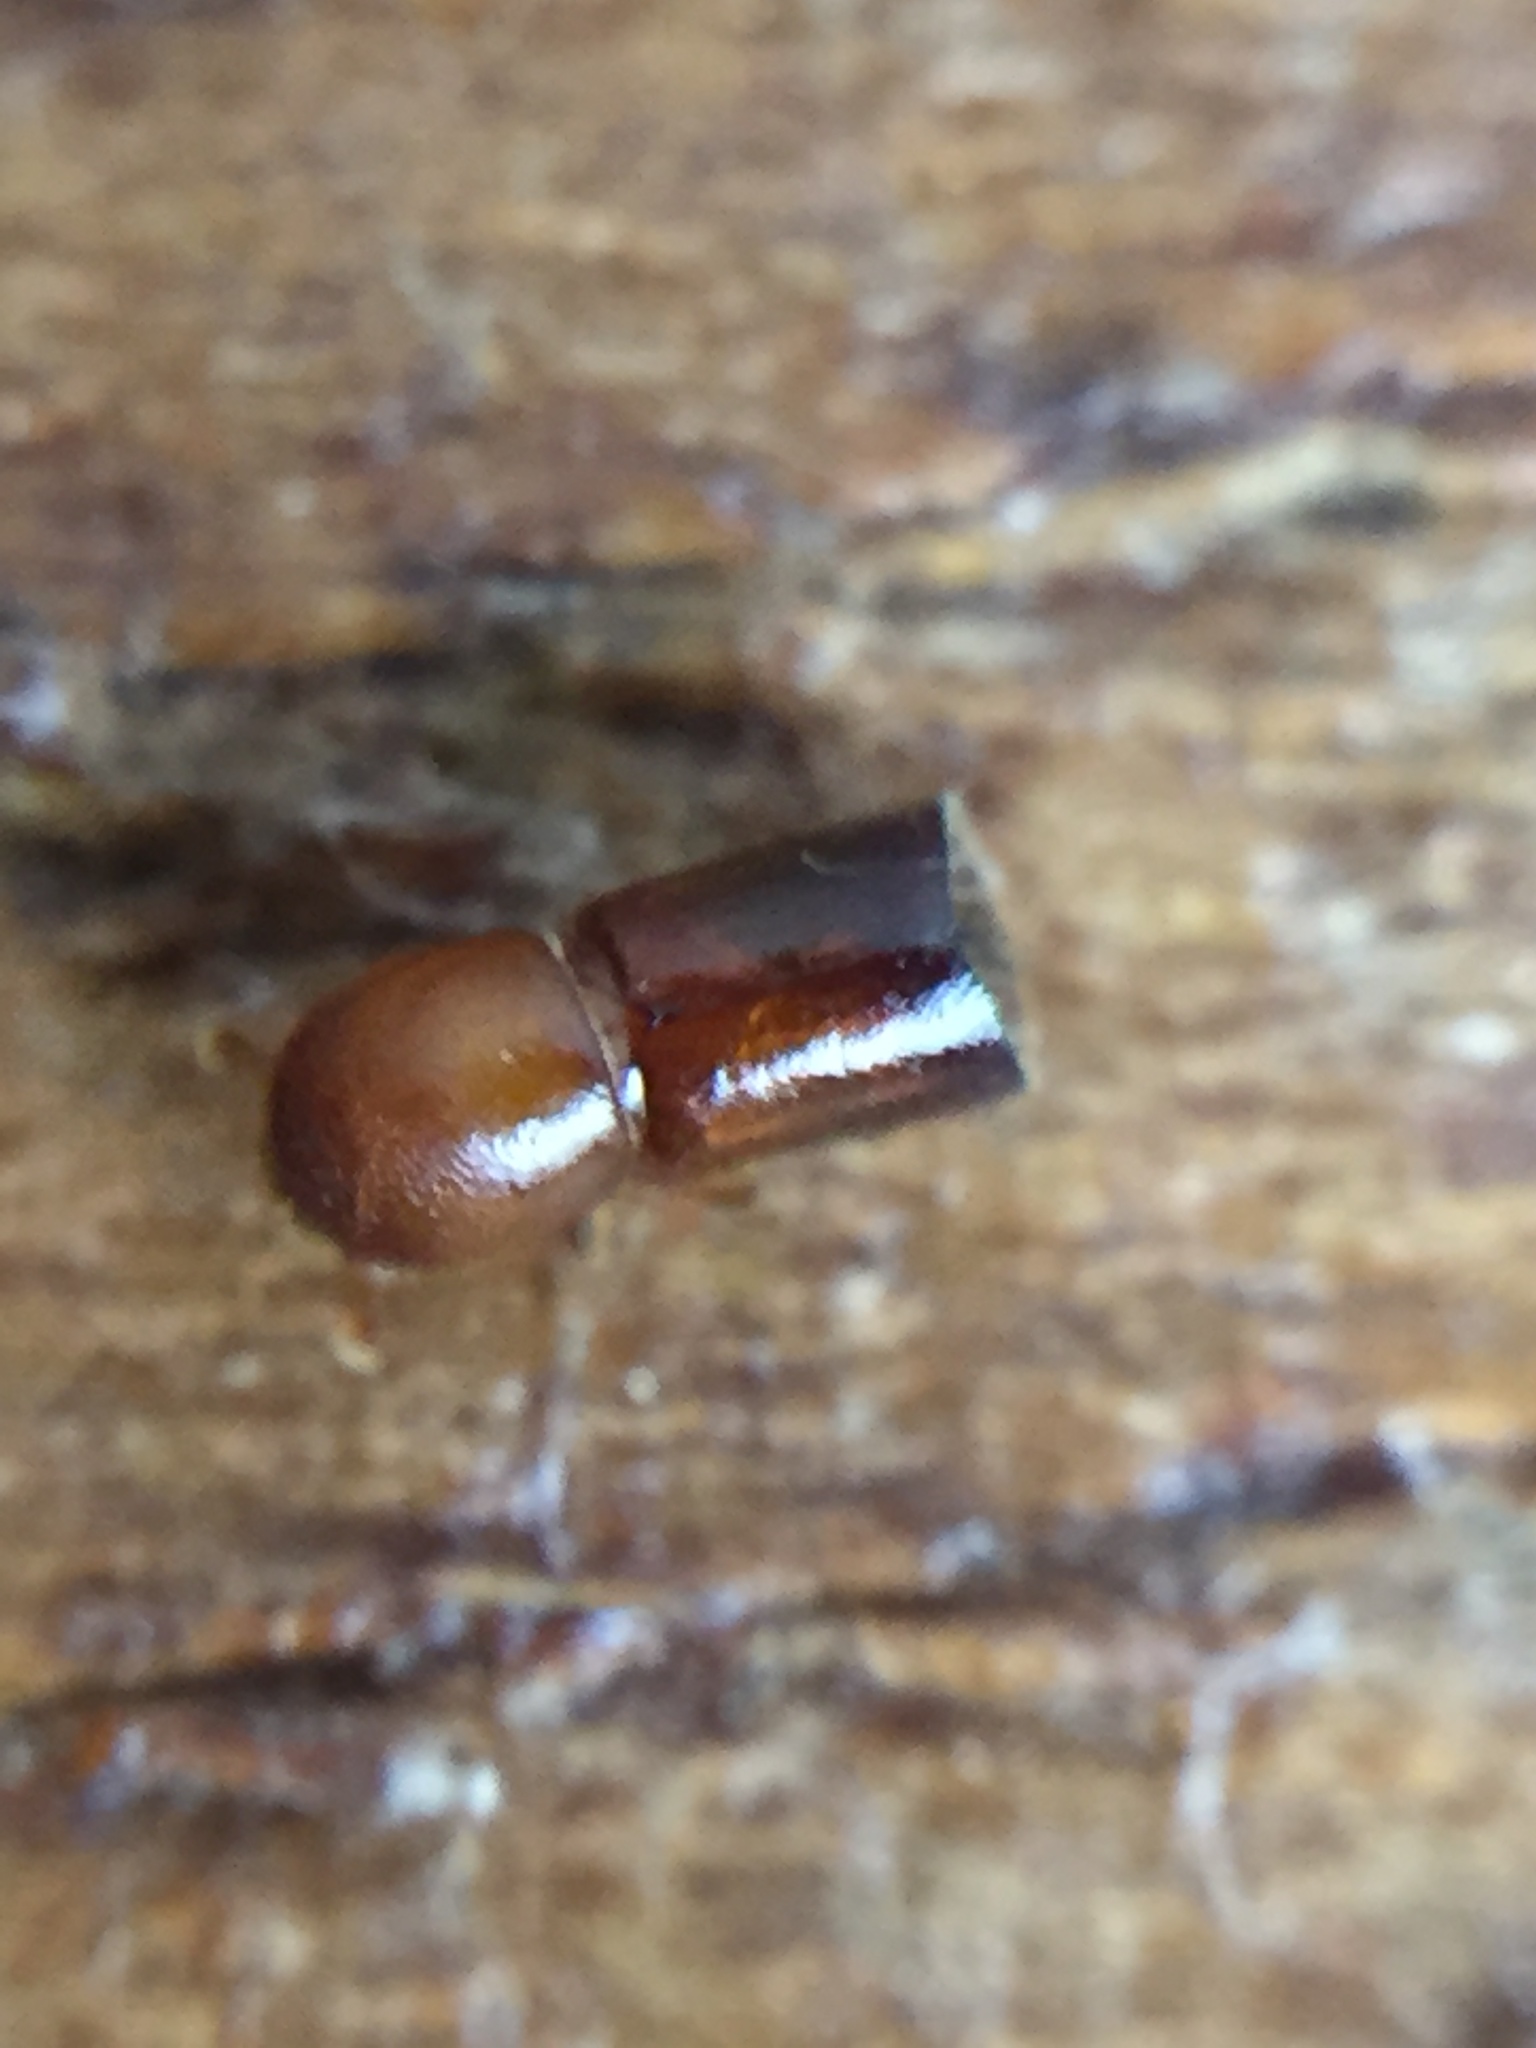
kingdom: Animalia
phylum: Arthropoda
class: Insecta
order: Coleoptera
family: Curculionidae
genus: Amasa
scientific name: Amasa truncatus
